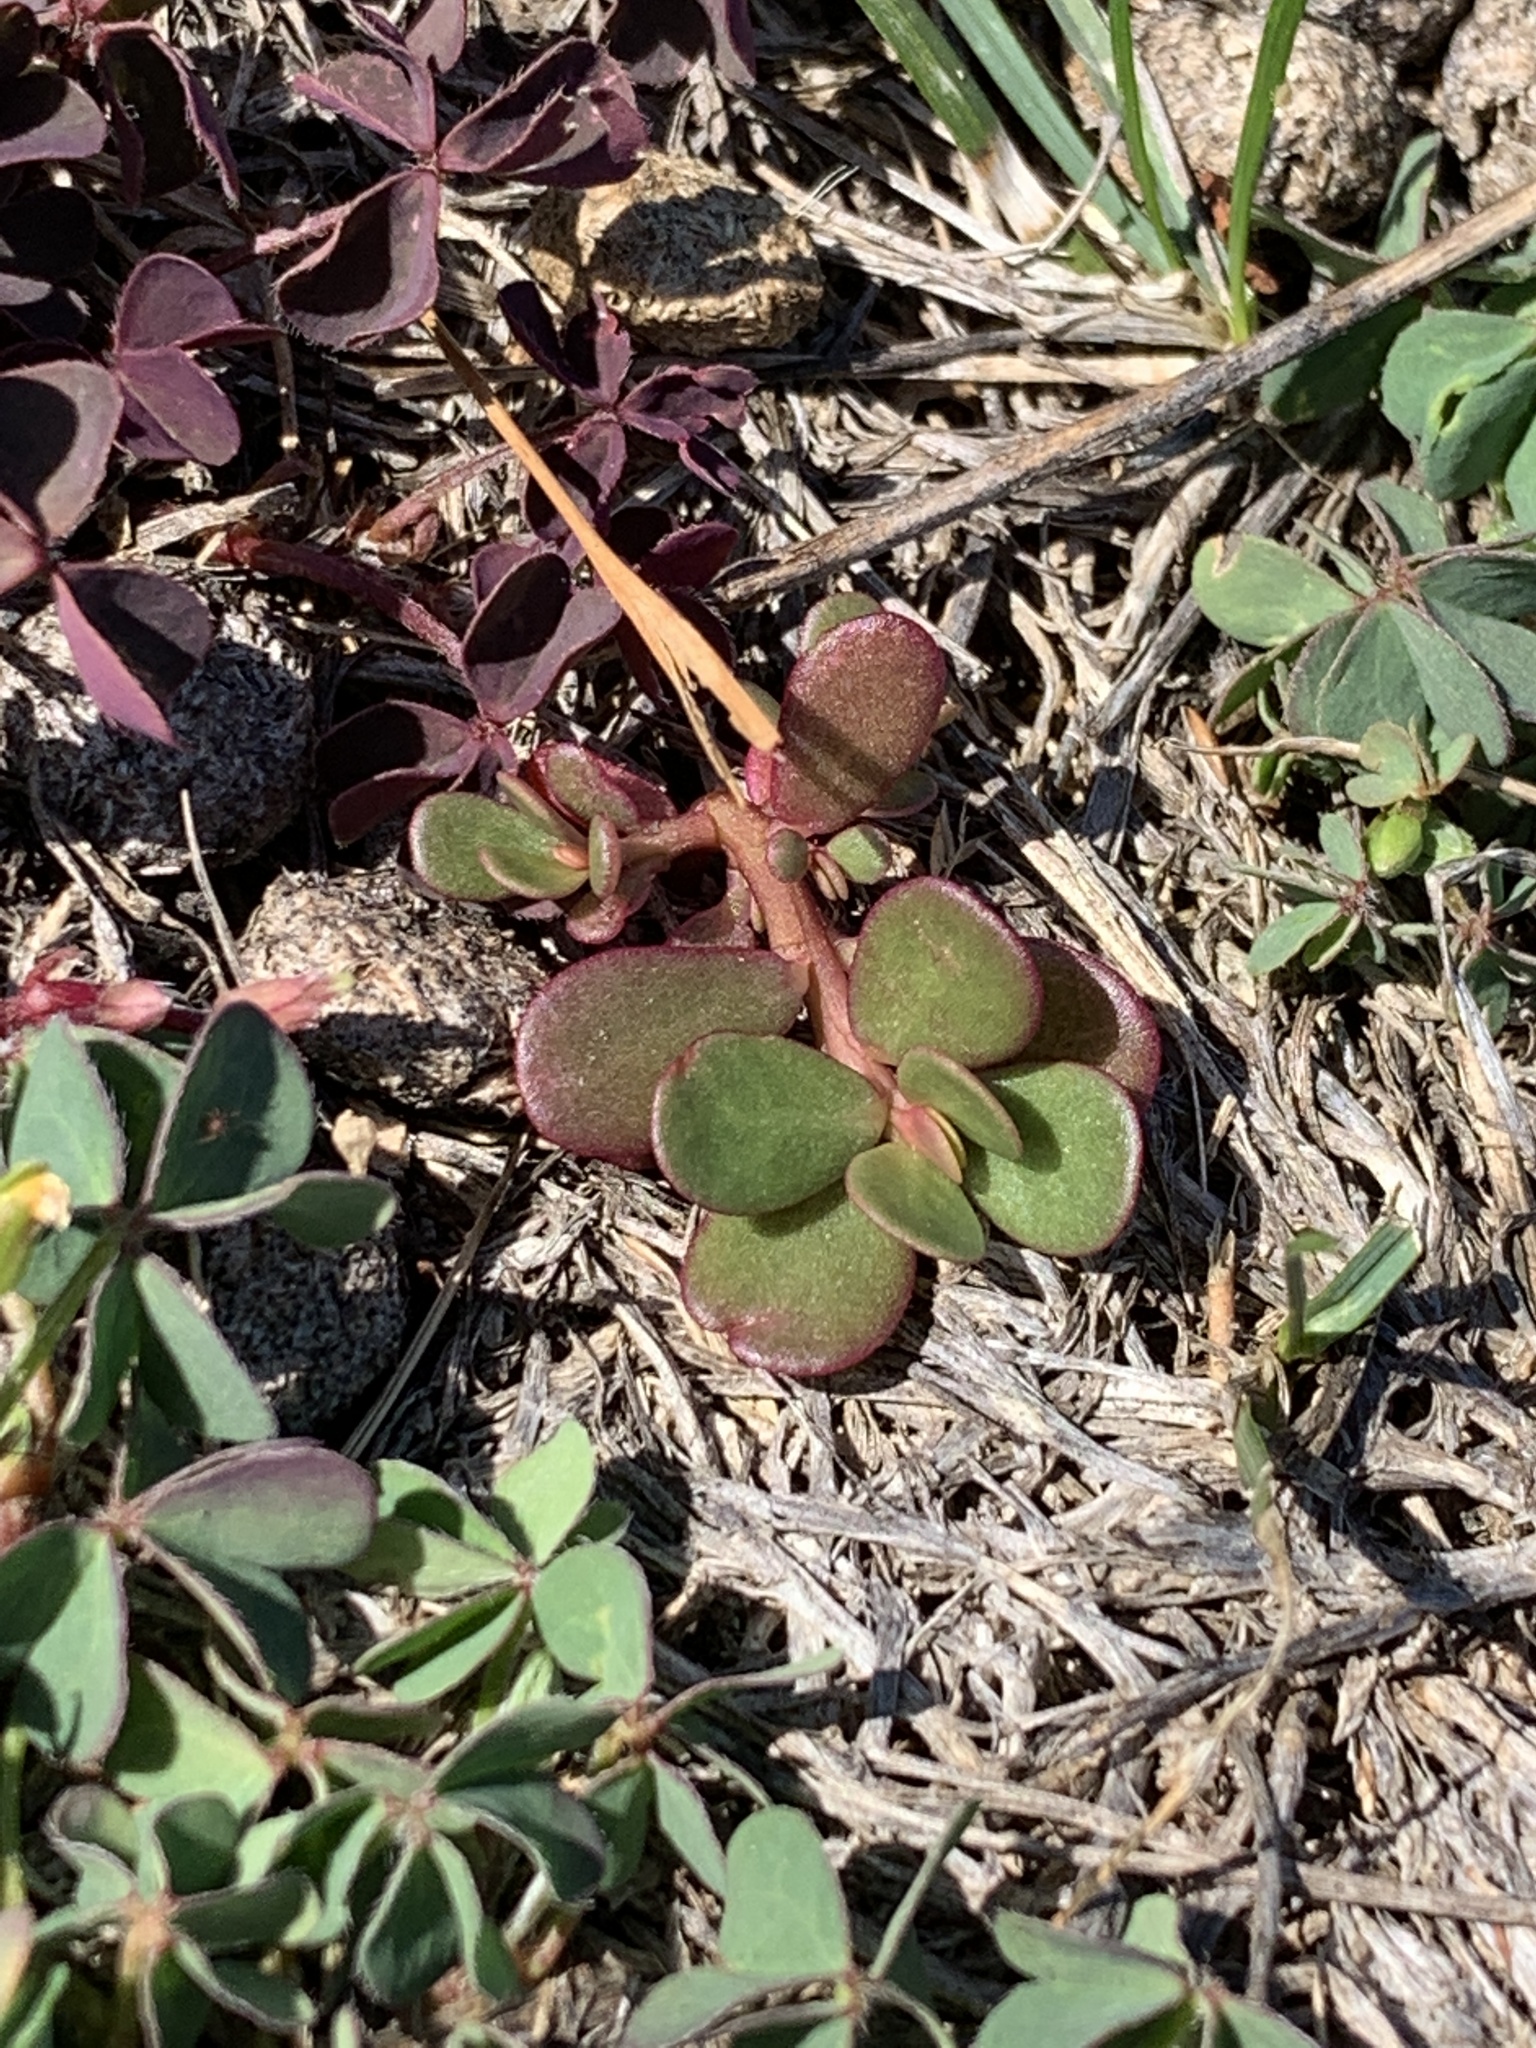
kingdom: Plantae
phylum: Tracheophyta
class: Magnoliopsida
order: Caryophyllales
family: Portulacaceae
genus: Portulaca
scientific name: Portulaca oleracea
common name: Common purslane
